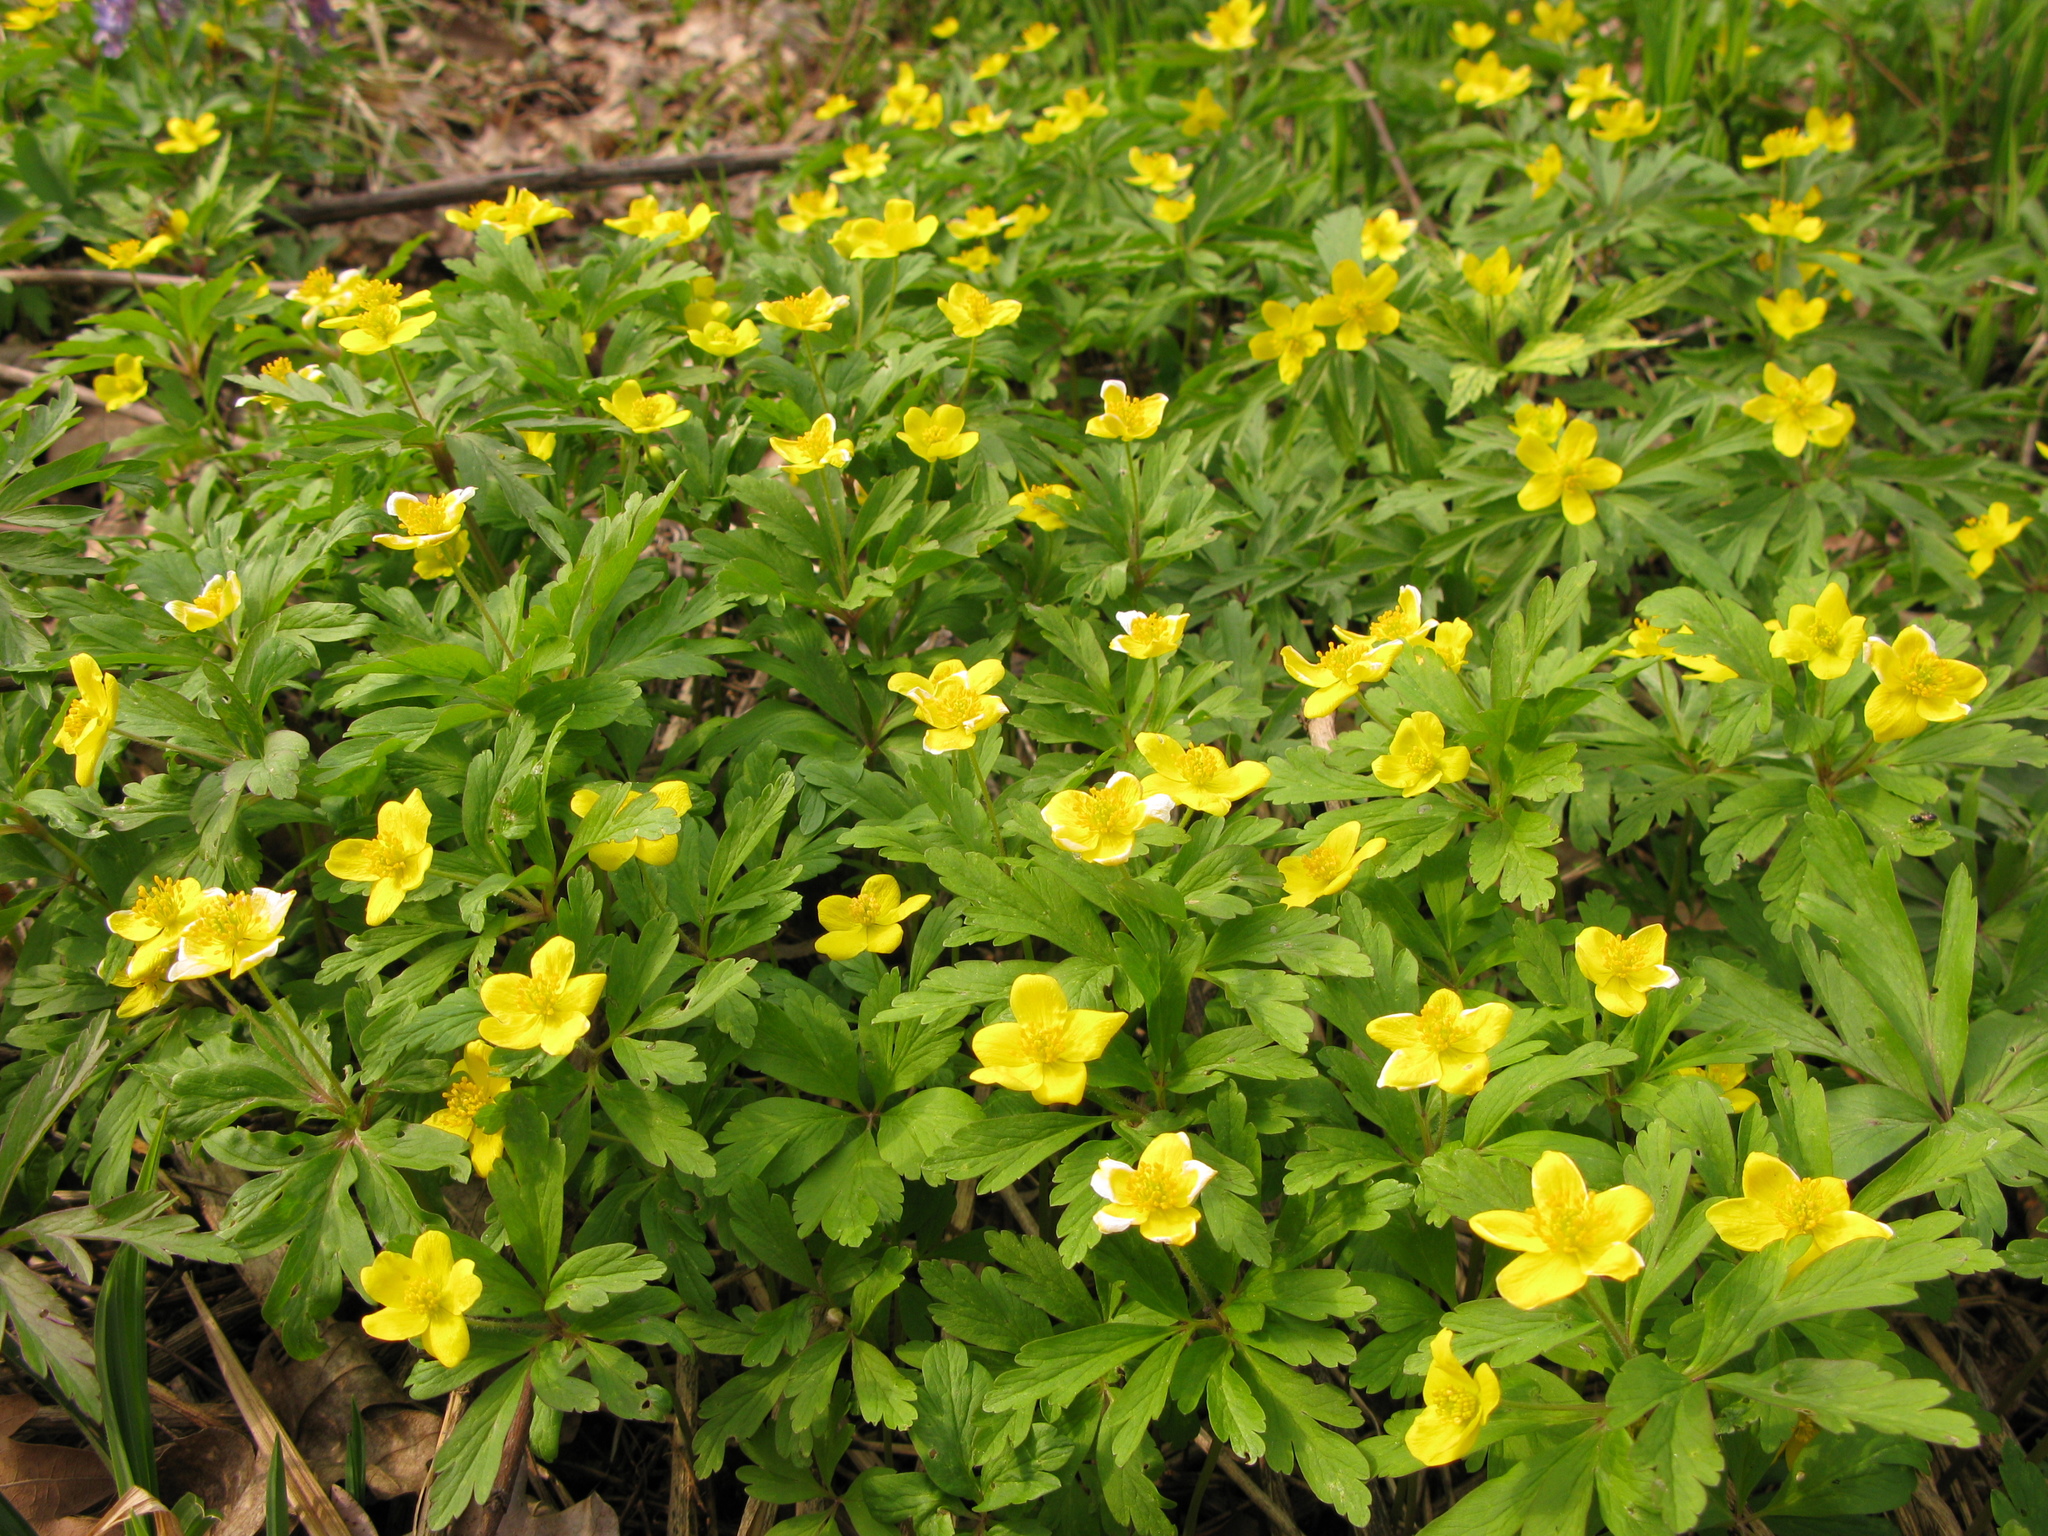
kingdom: Plantae
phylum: Tracheophyta
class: Magnoliopsida
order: Ranunculales
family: Ranunculaceae
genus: Anemone
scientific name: Anemone ranunculoides
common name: Yellow anemone
